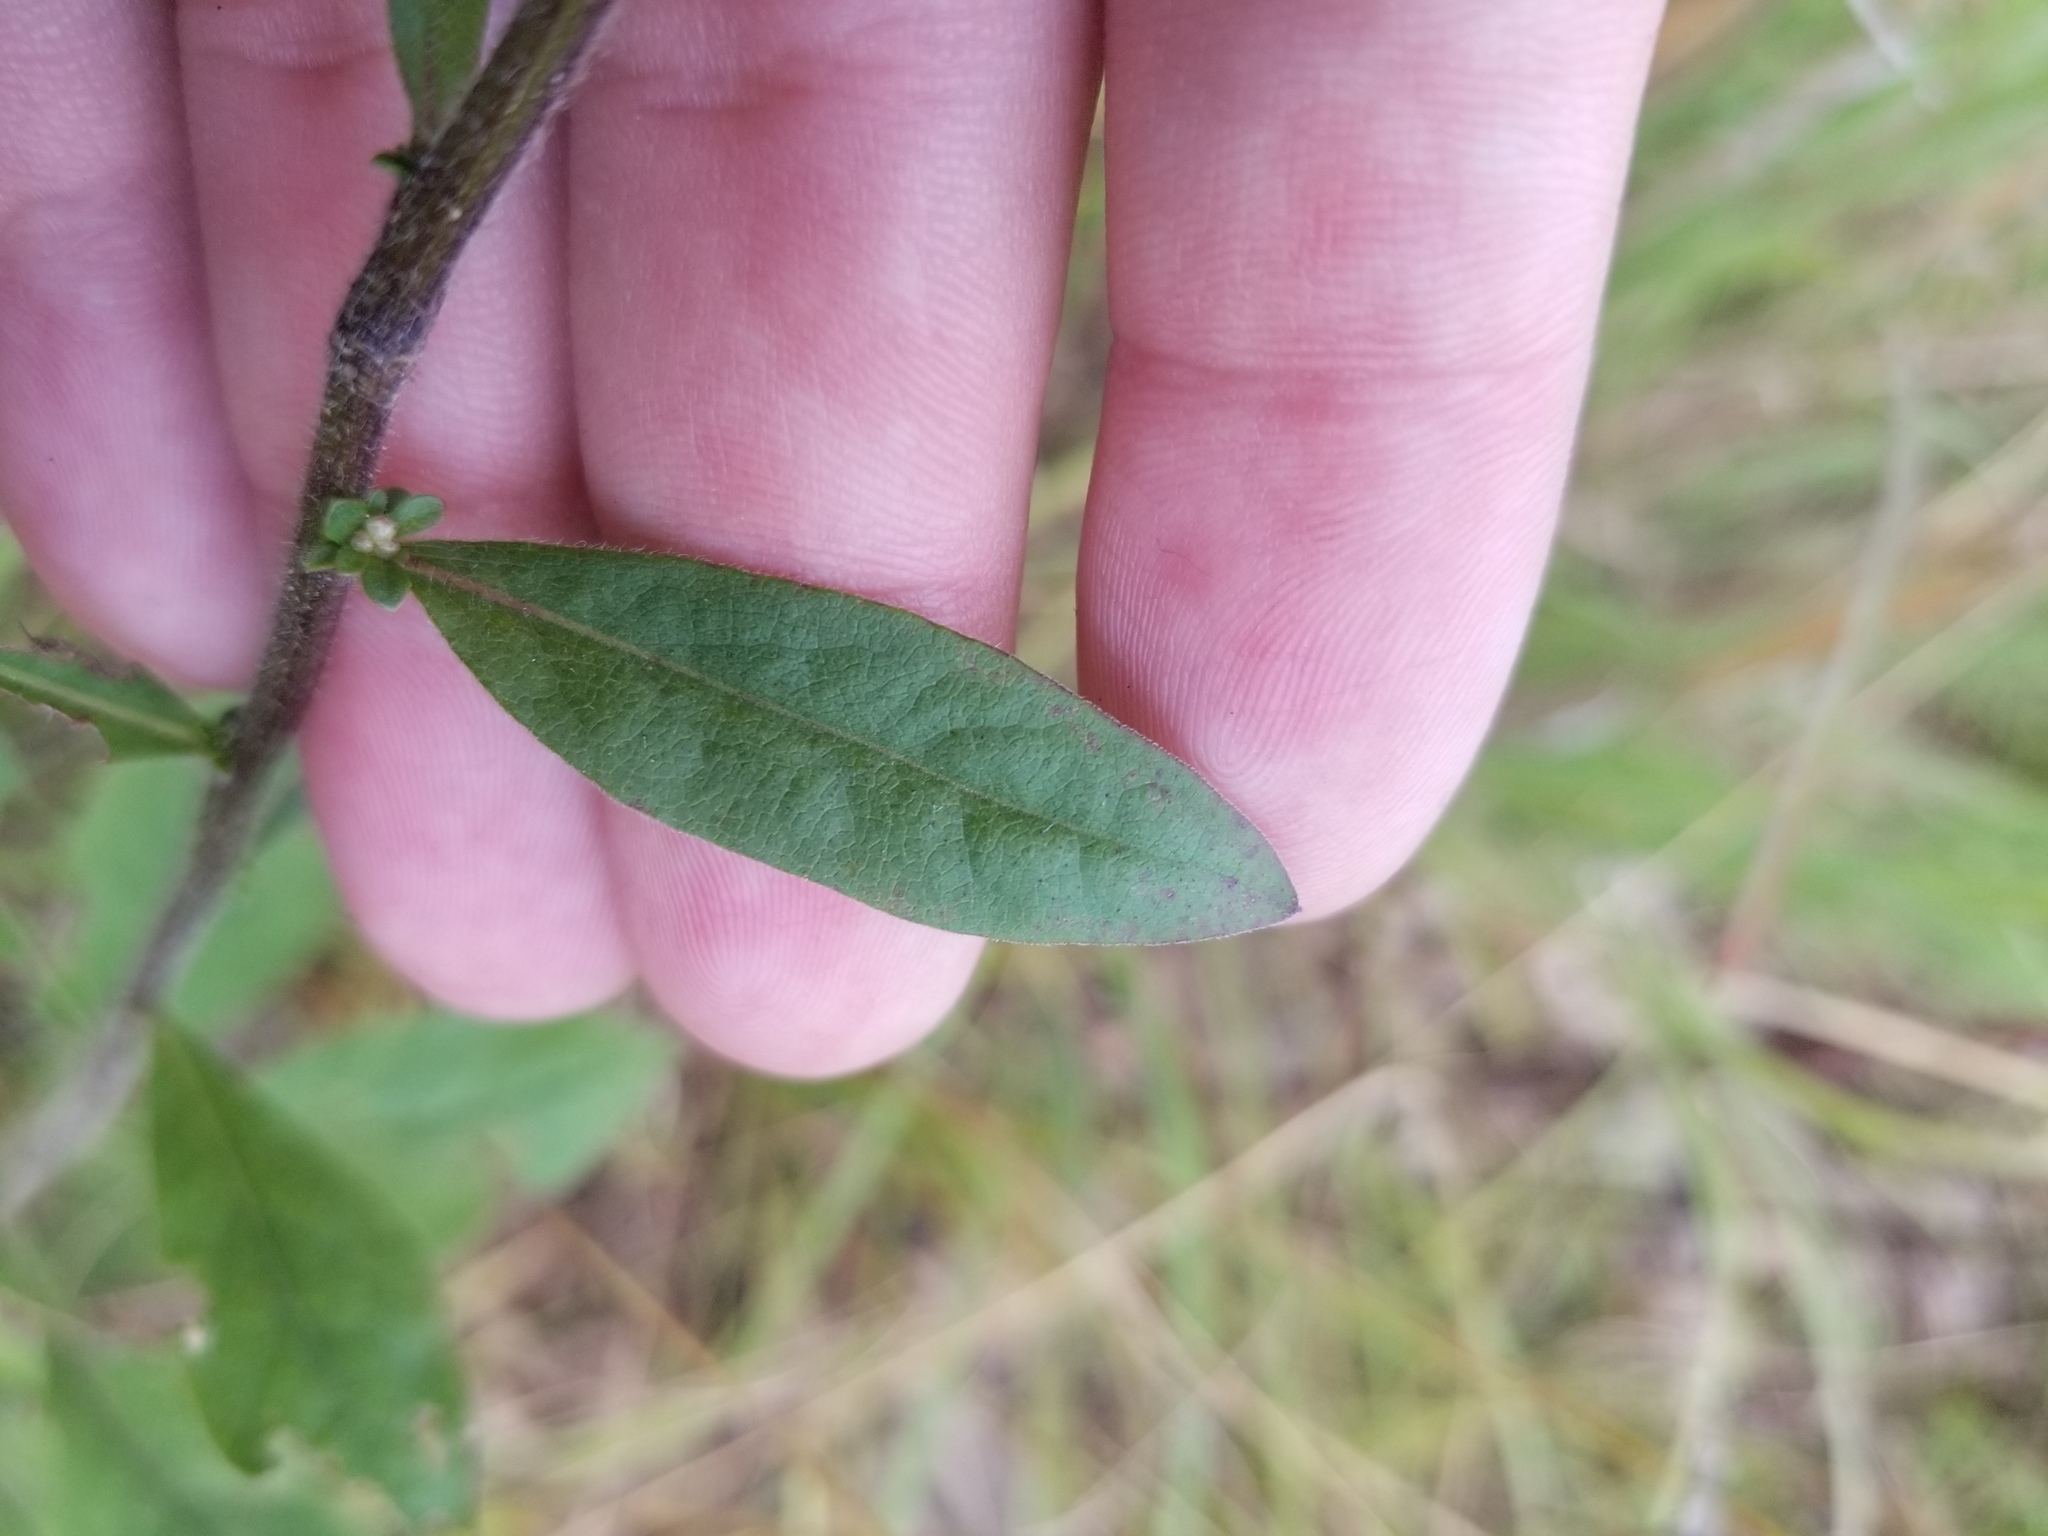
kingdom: Plantae
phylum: Tracheophyta
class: Magnoliopsida
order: Asterales
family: Asteraceae
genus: Solidago
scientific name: Solidago bicolor
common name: Silverrod
